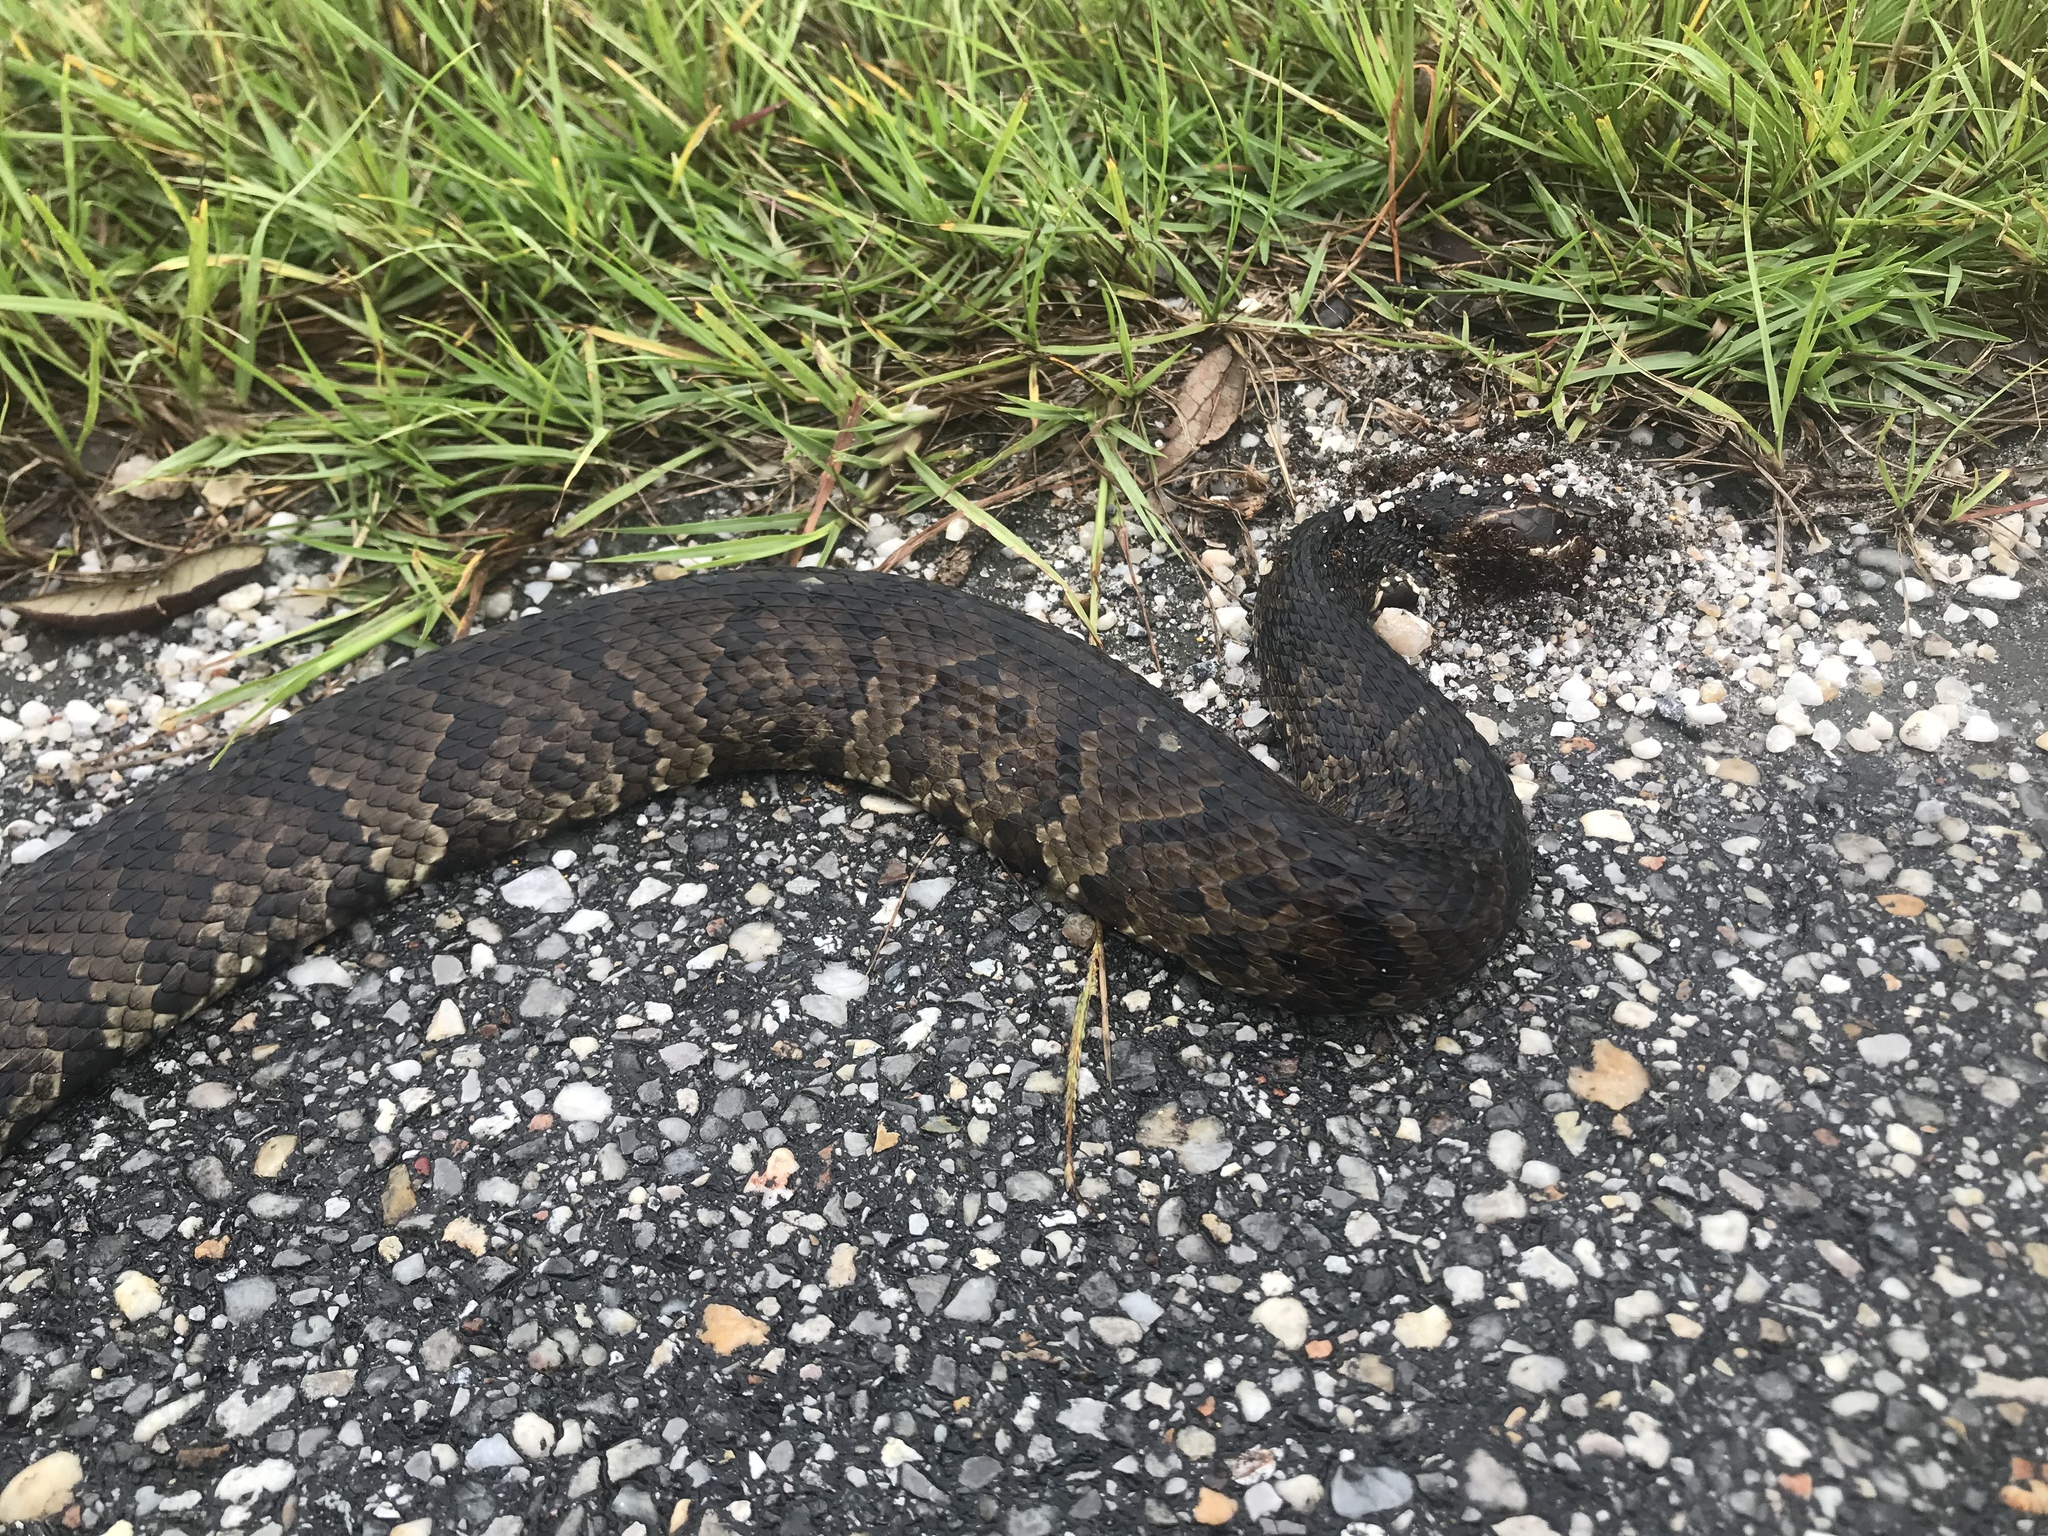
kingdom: Animalia
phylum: Chordata
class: Squamata
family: Viperidae
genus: Agkistrodon
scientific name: Agkistrodon piscivorus
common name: Cottonmouth
